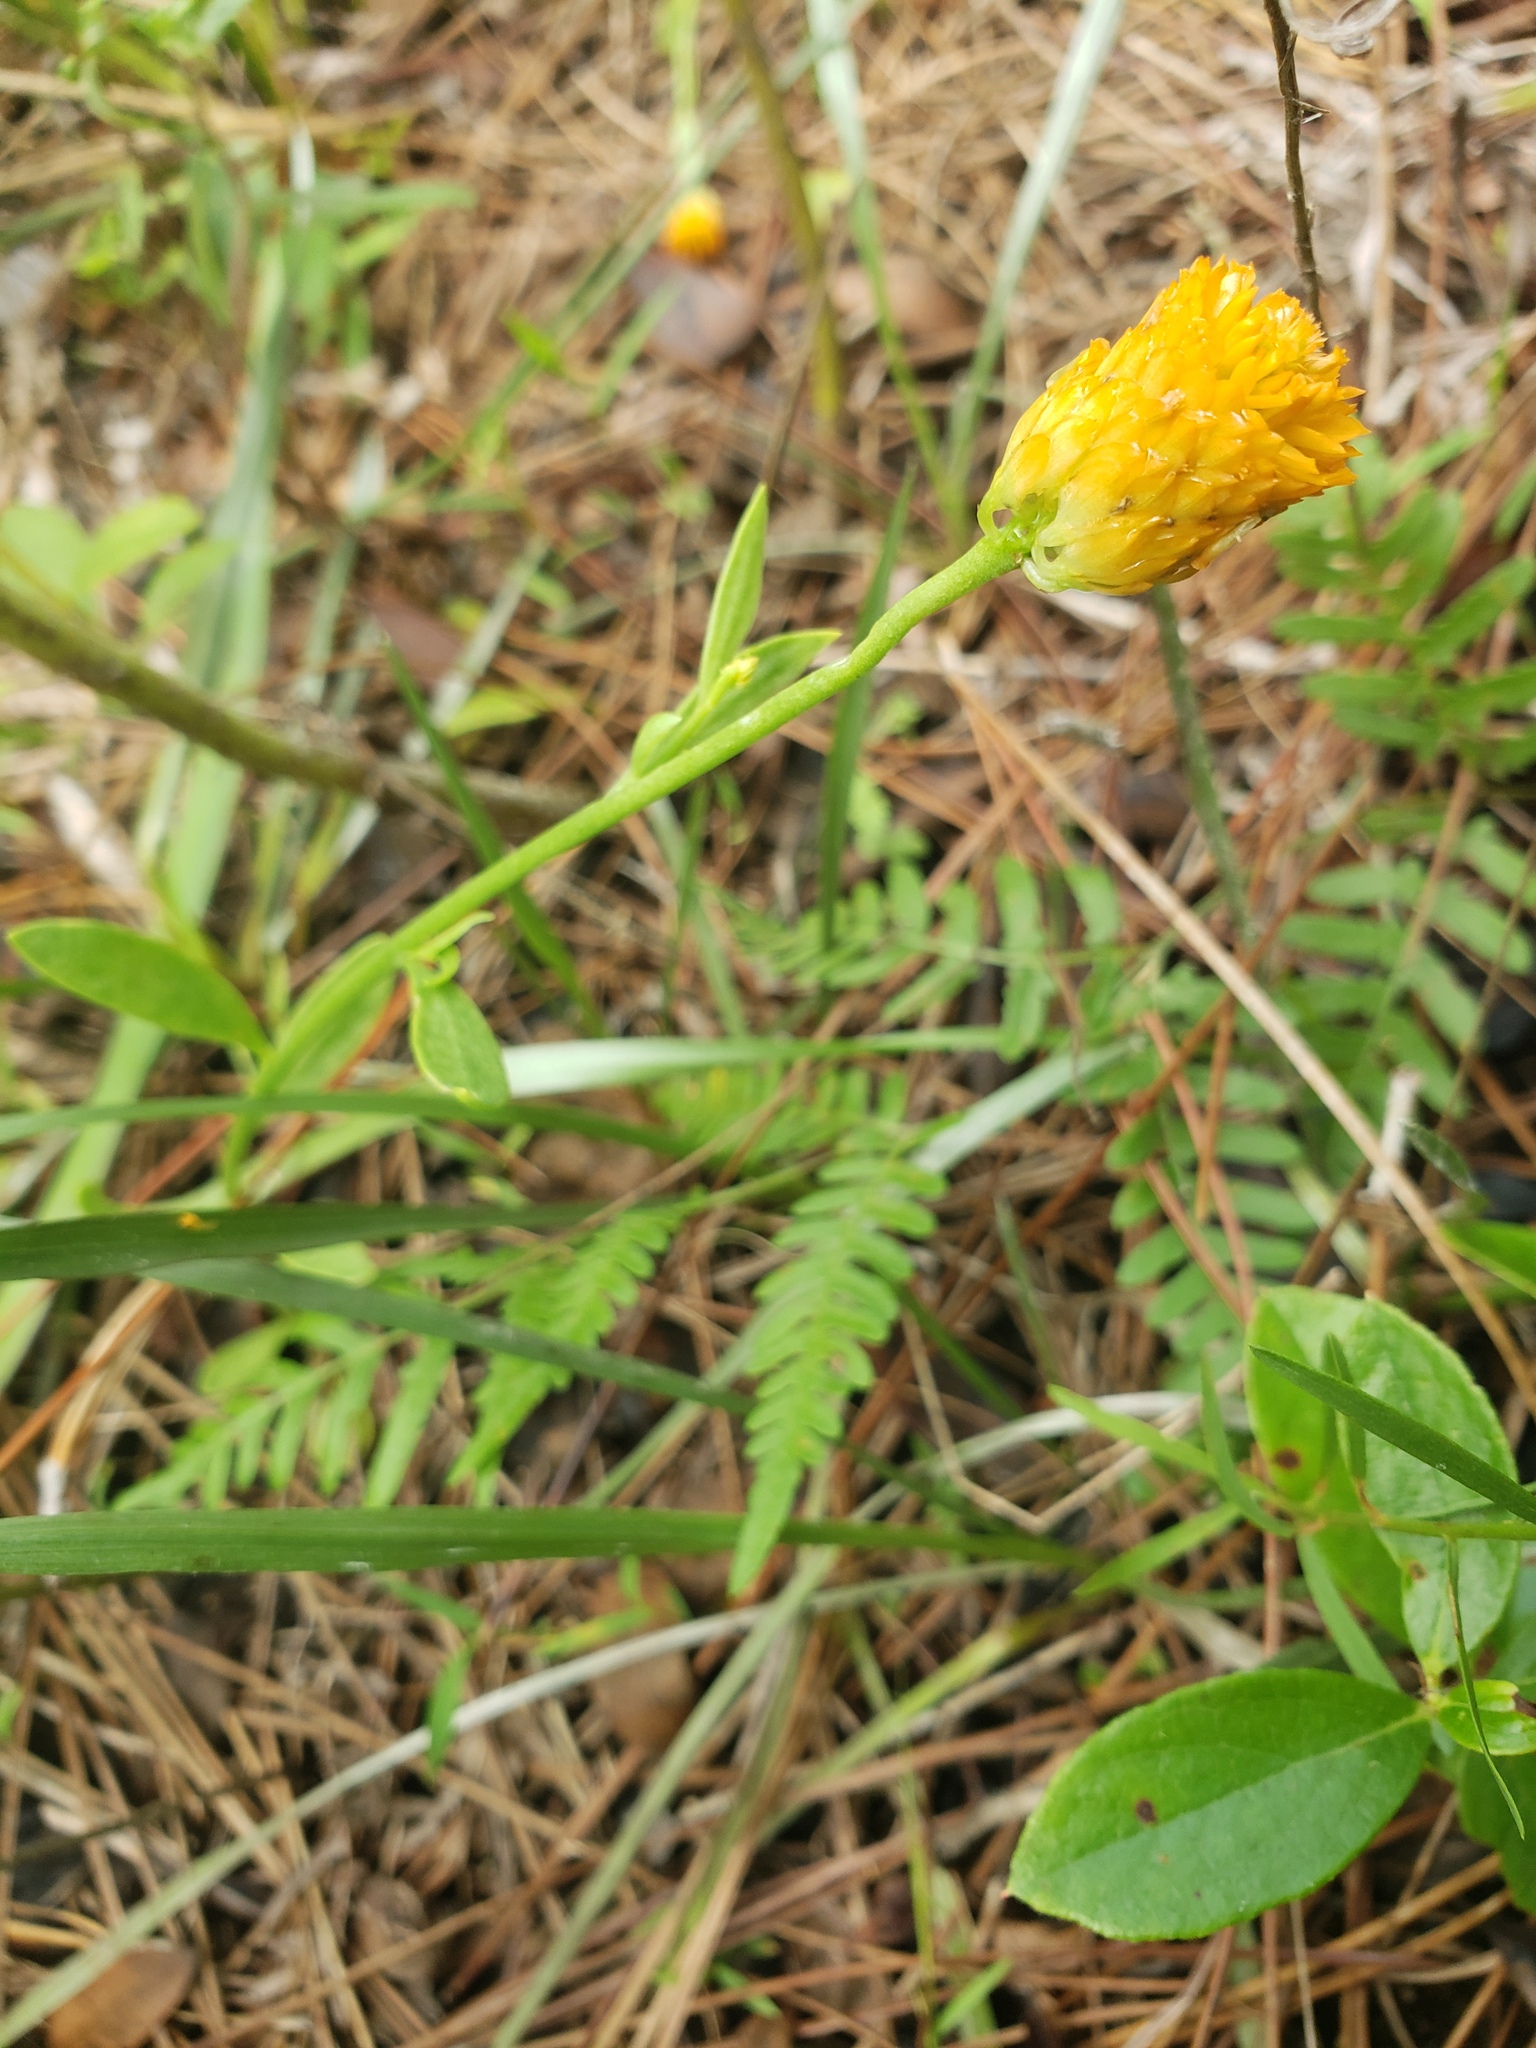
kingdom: Plantae
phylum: Tracheophyta
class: Magnoliopsida
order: Fabales
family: Polygalaceae
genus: Polygala
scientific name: Polygala lutea
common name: Orange milkwort
